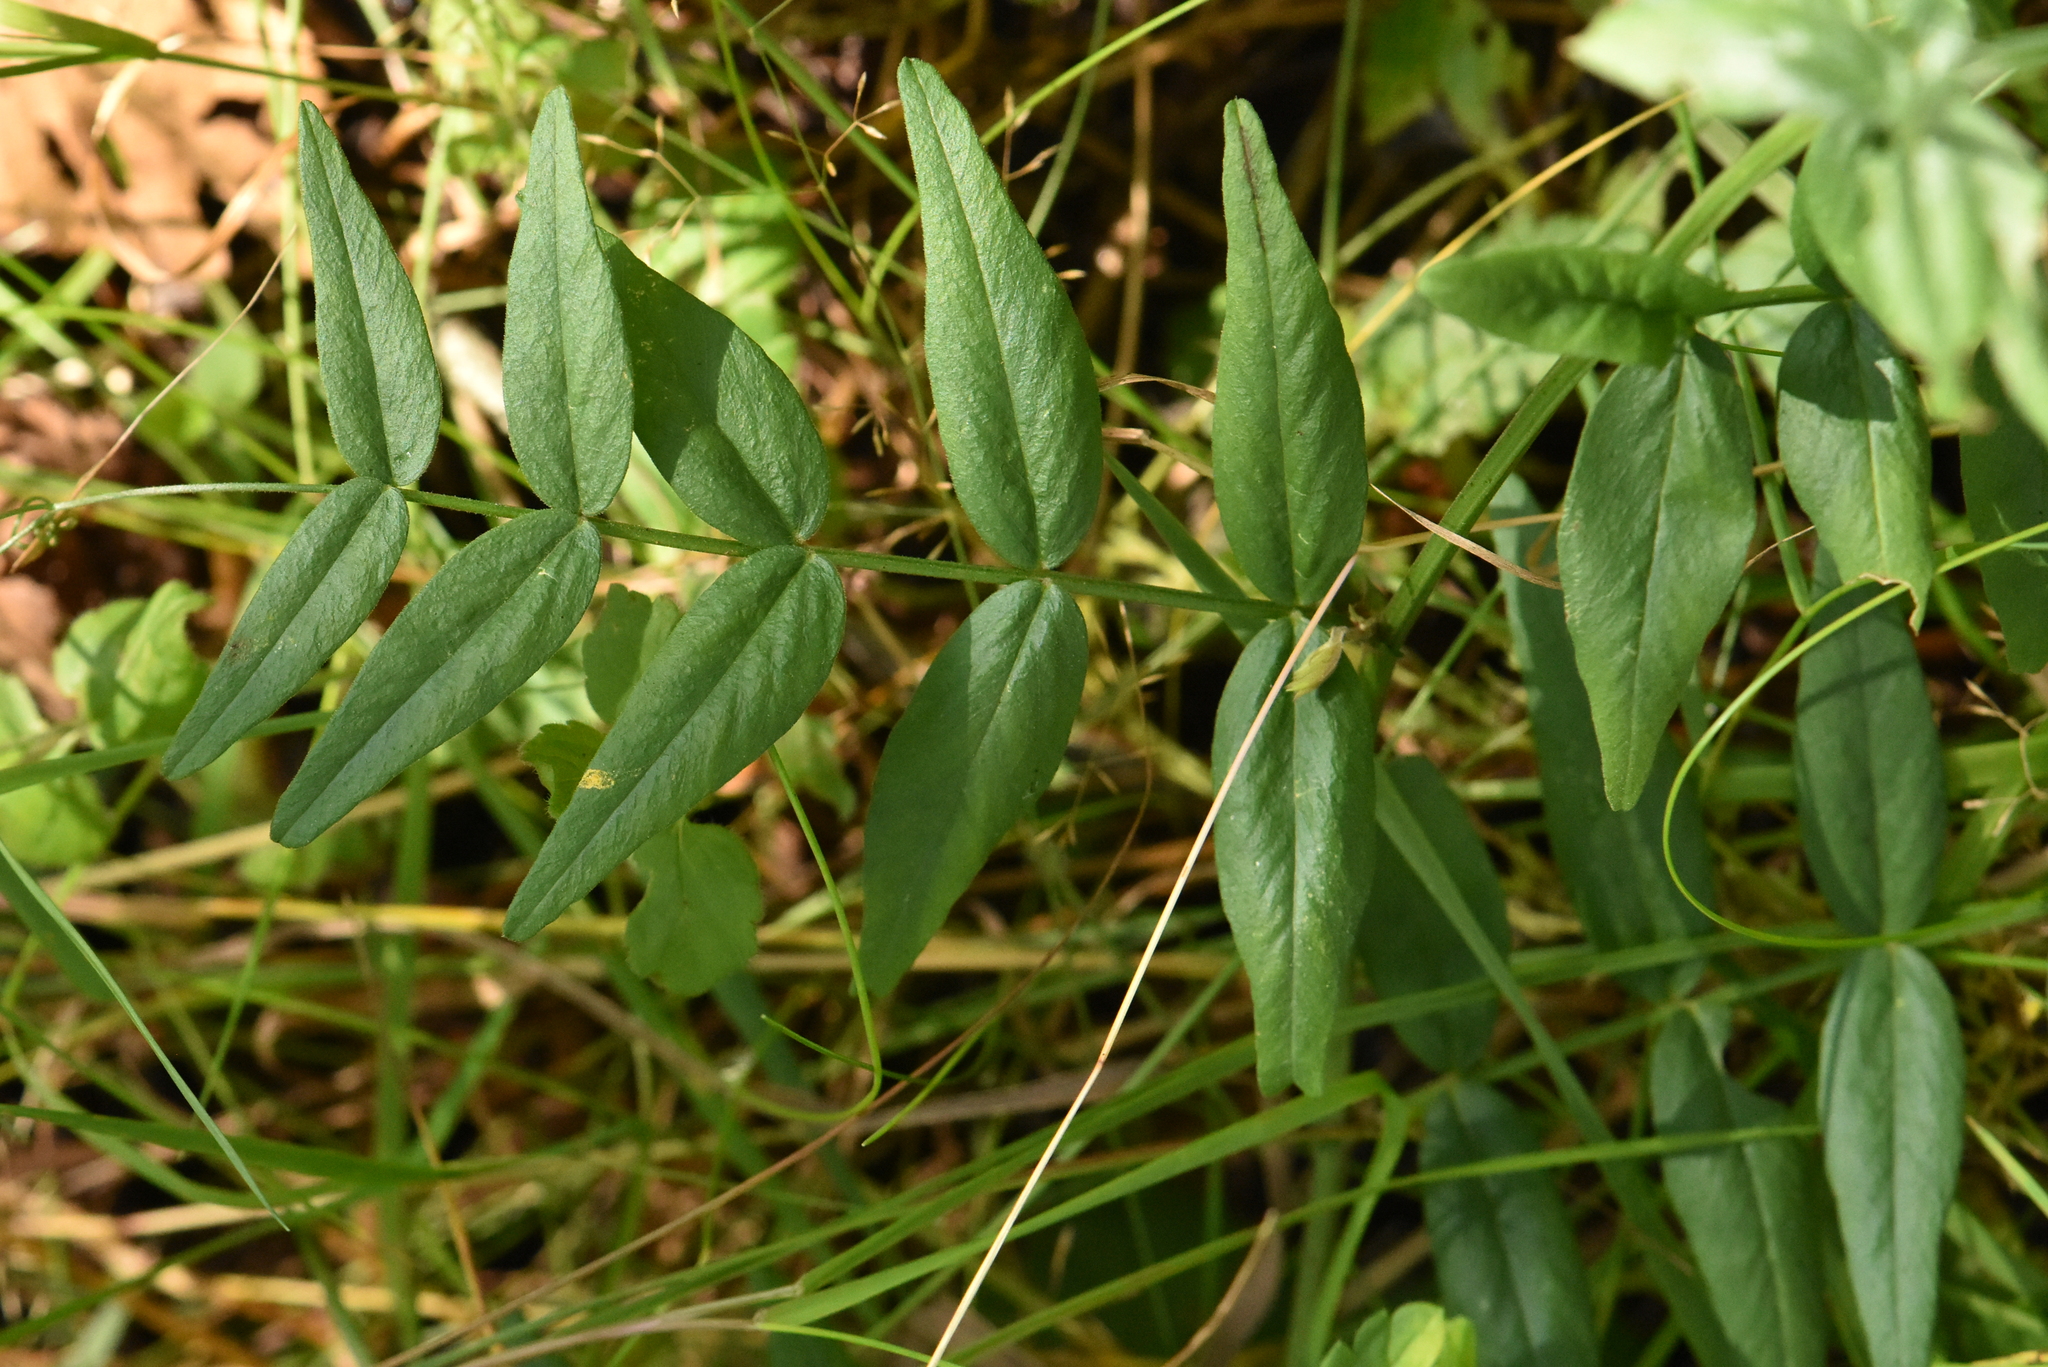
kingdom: Plantae
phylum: Tracheophyta
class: Magnoliopsida
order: Fabales
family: Fabaceae
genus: Vicia
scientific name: Vicia sepium
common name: Bush vetch
